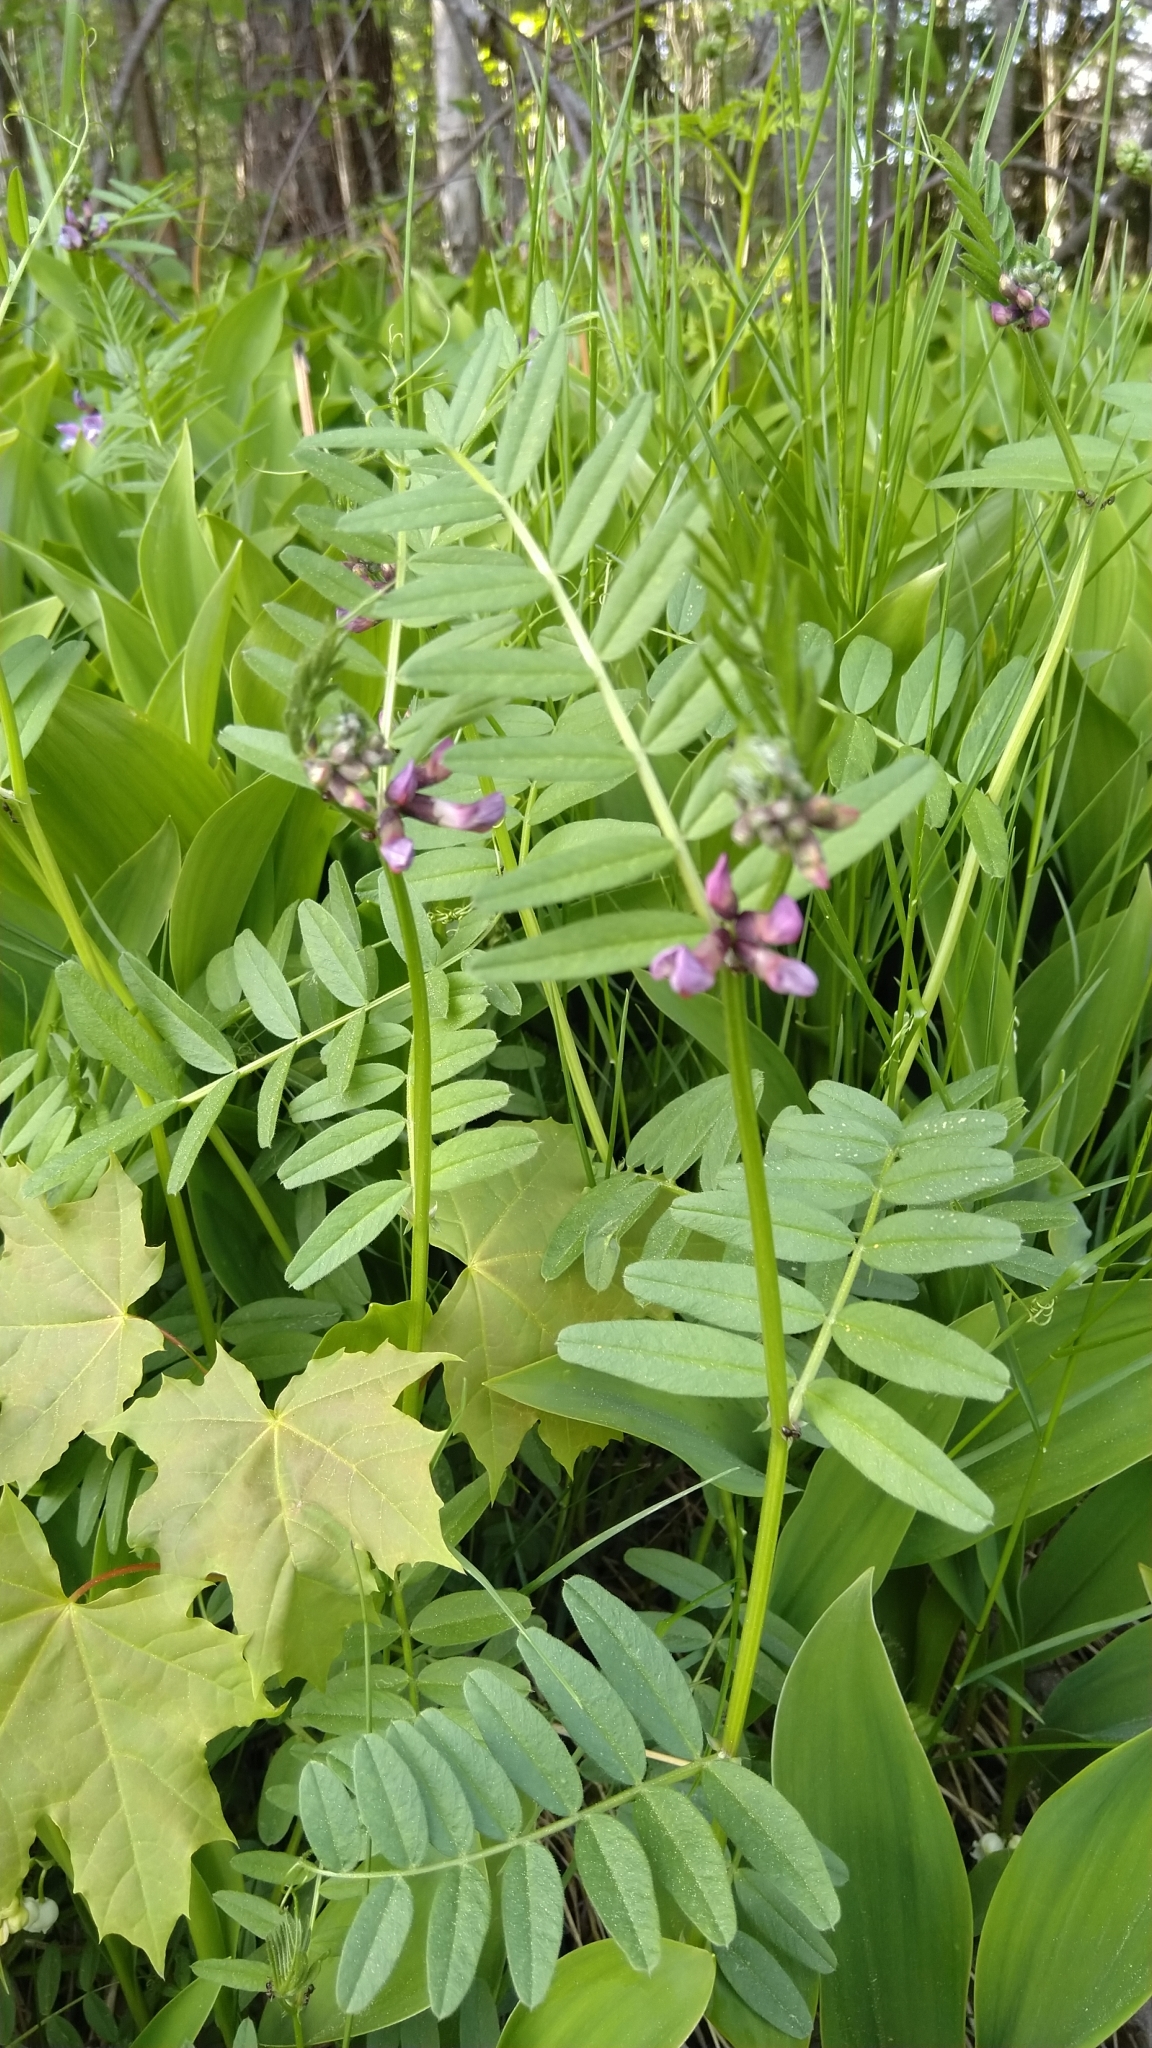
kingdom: Plantae
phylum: Tracheophyta
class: Magnoliopsida
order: Fabales
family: Fabaceae
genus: Vicia
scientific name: Vicia sepium
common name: Bush vetch
